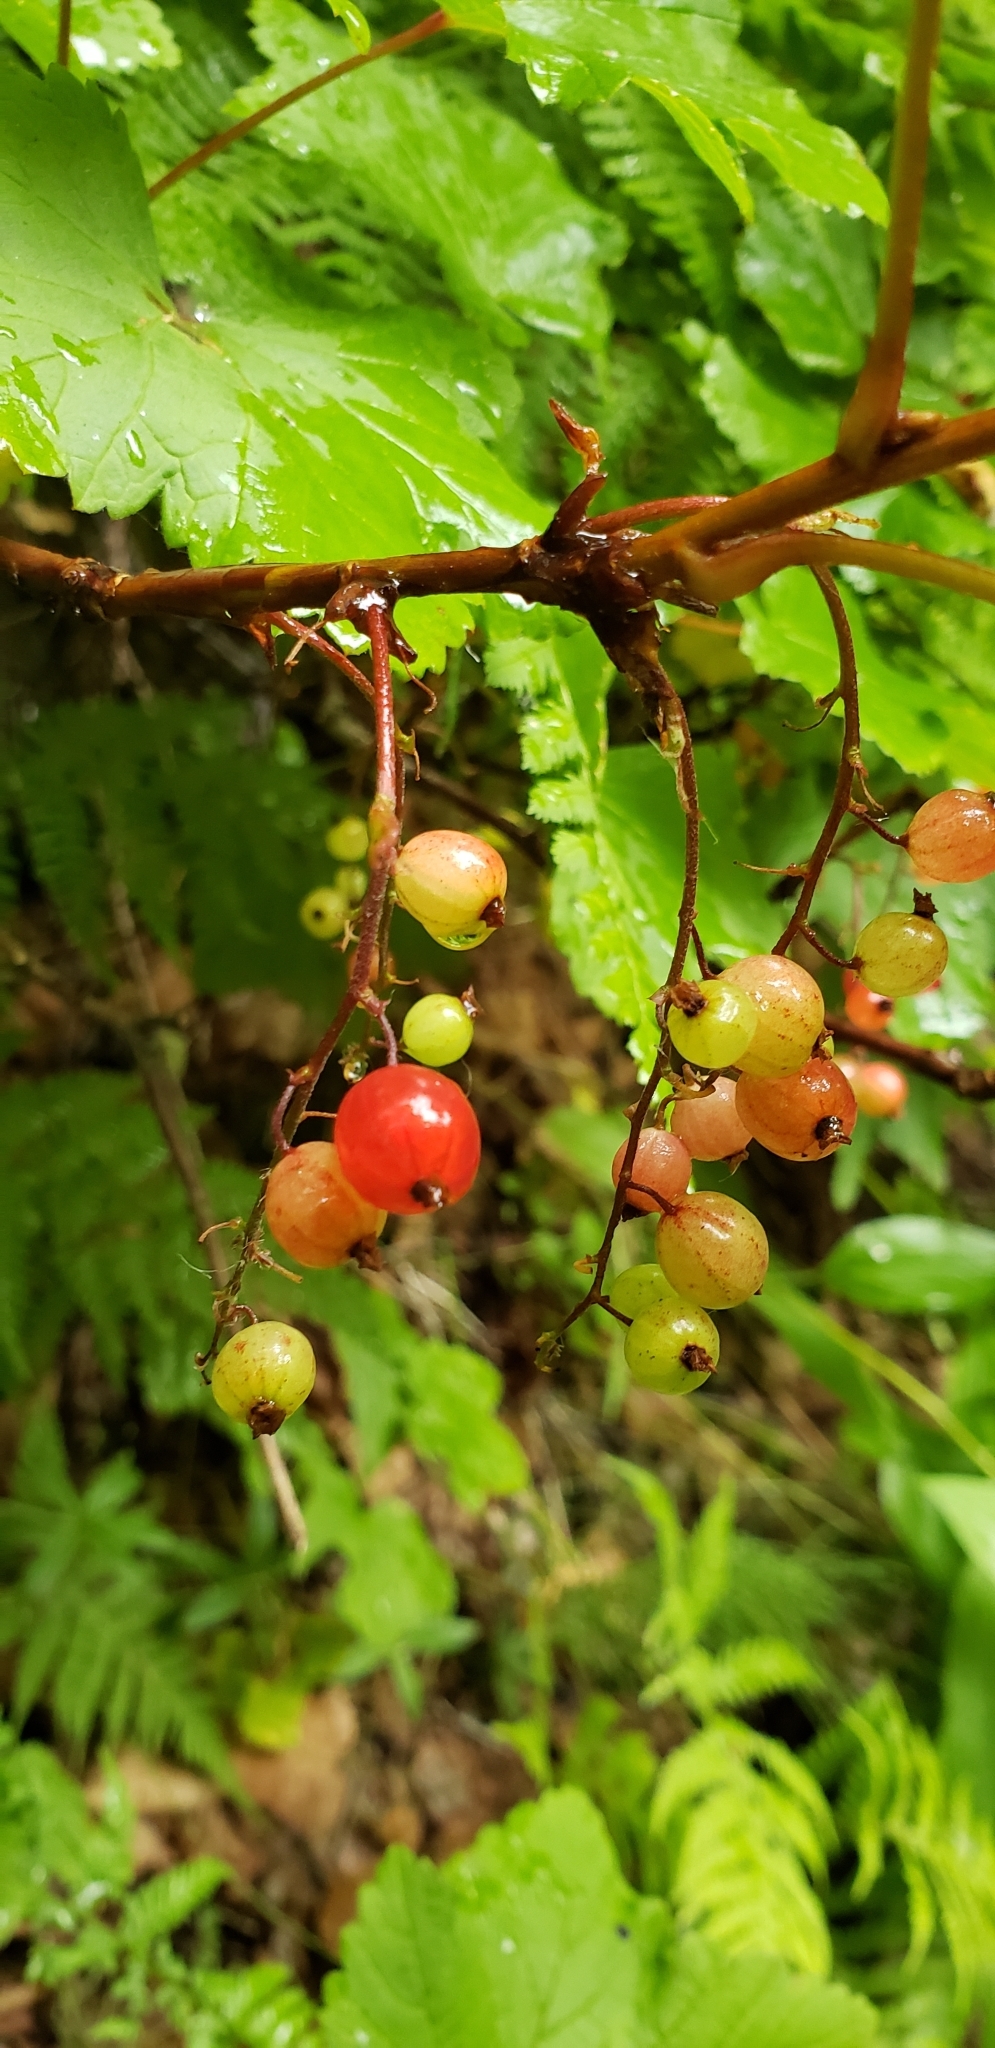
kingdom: Plantae
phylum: Tracheophyta
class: Magnoliopsida
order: Saxifragales
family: Grossulariaceae
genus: Ribes
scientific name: Ribes triste
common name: Swamp red currant
